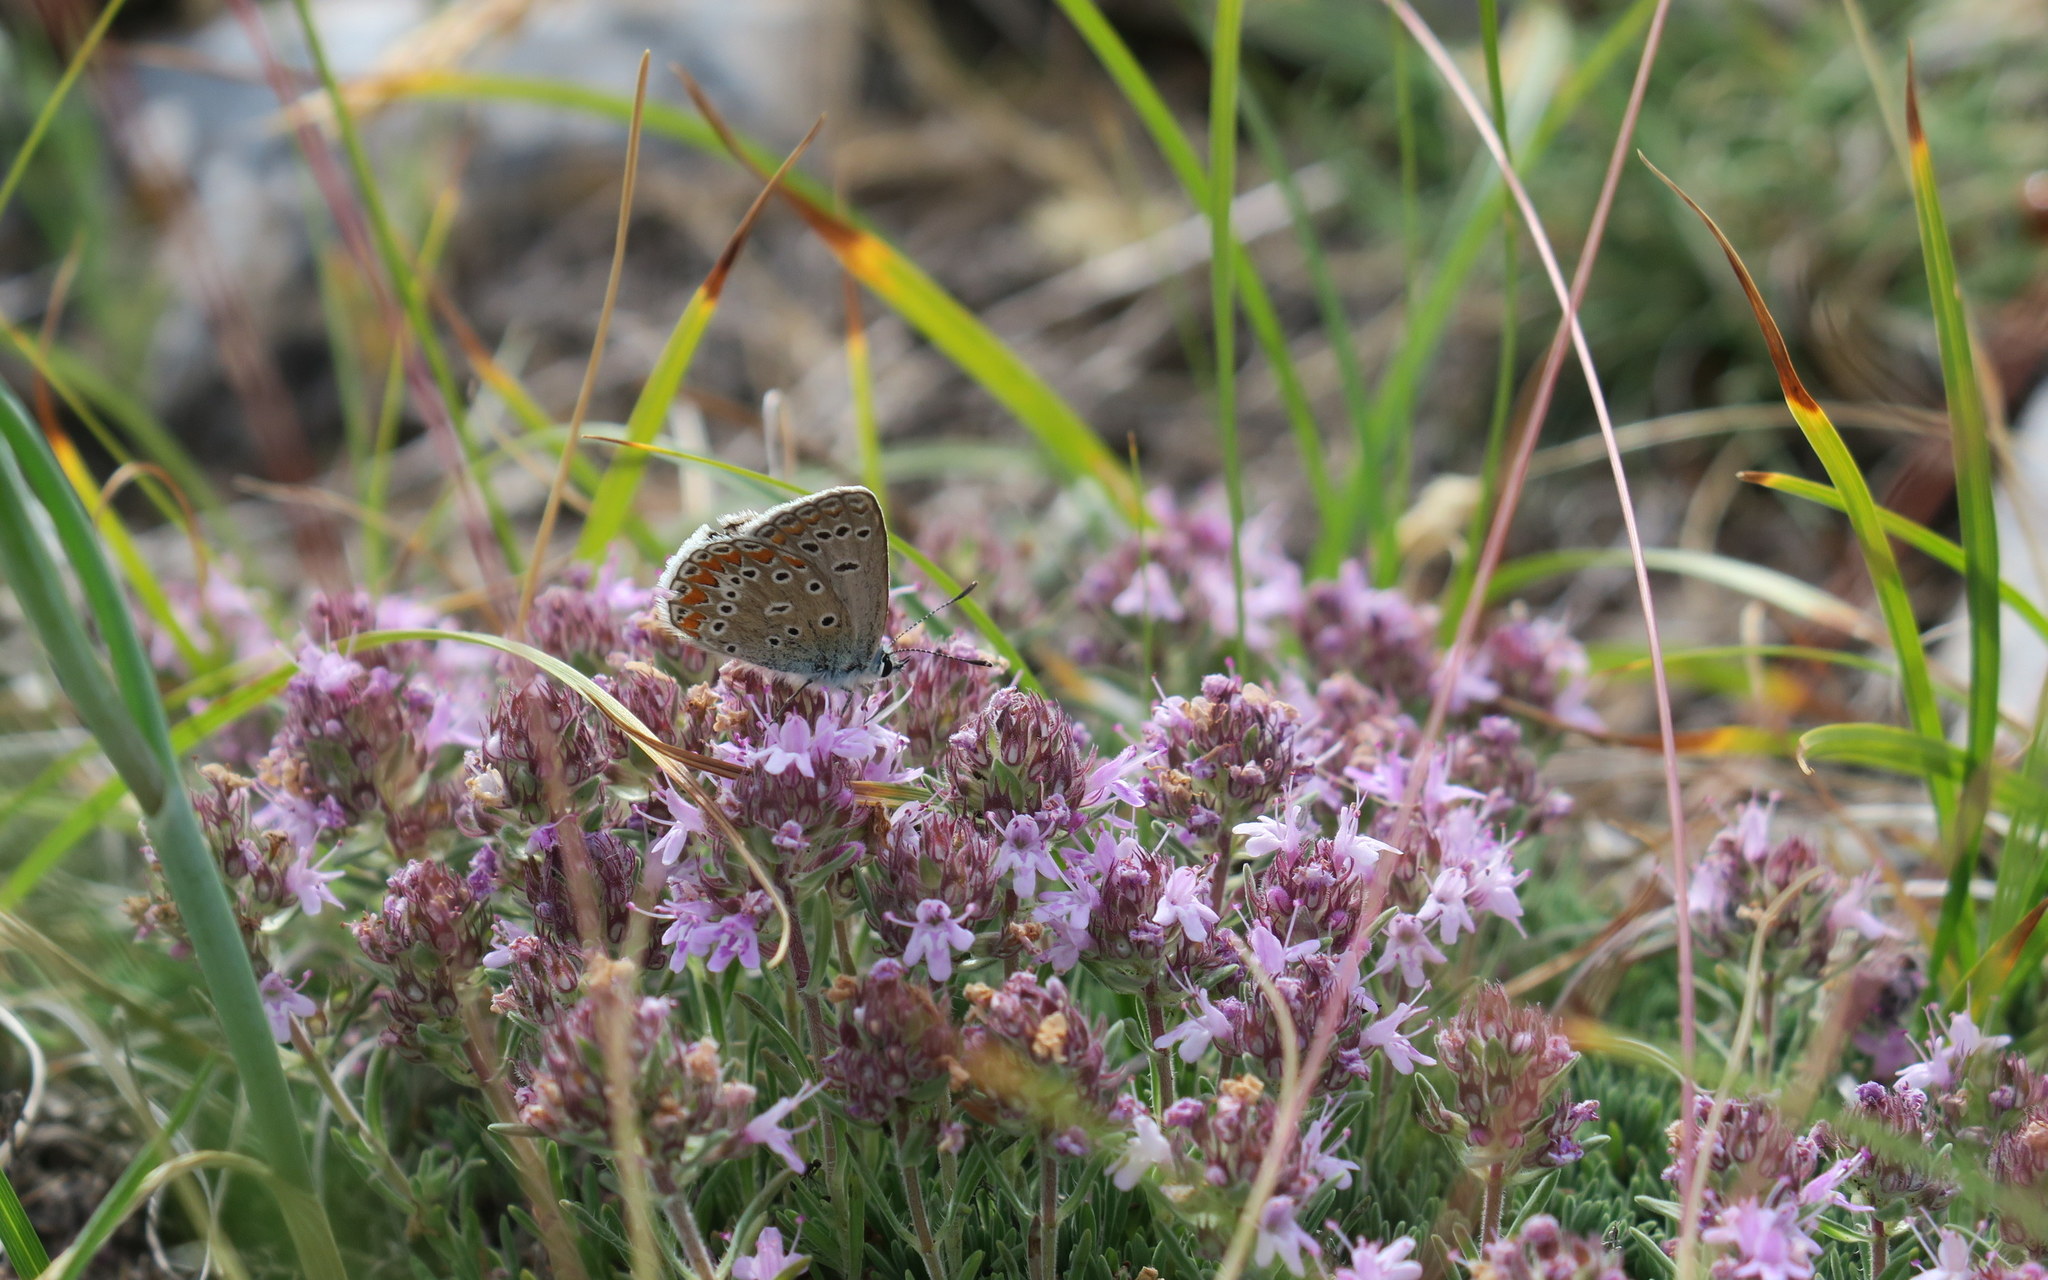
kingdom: Animalia
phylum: Arthropoda
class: Insecta
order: Lepidoptera
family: Lycaenidae
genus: Polyommatus
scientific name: Polyommatus thersites
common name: Chapman's blue
